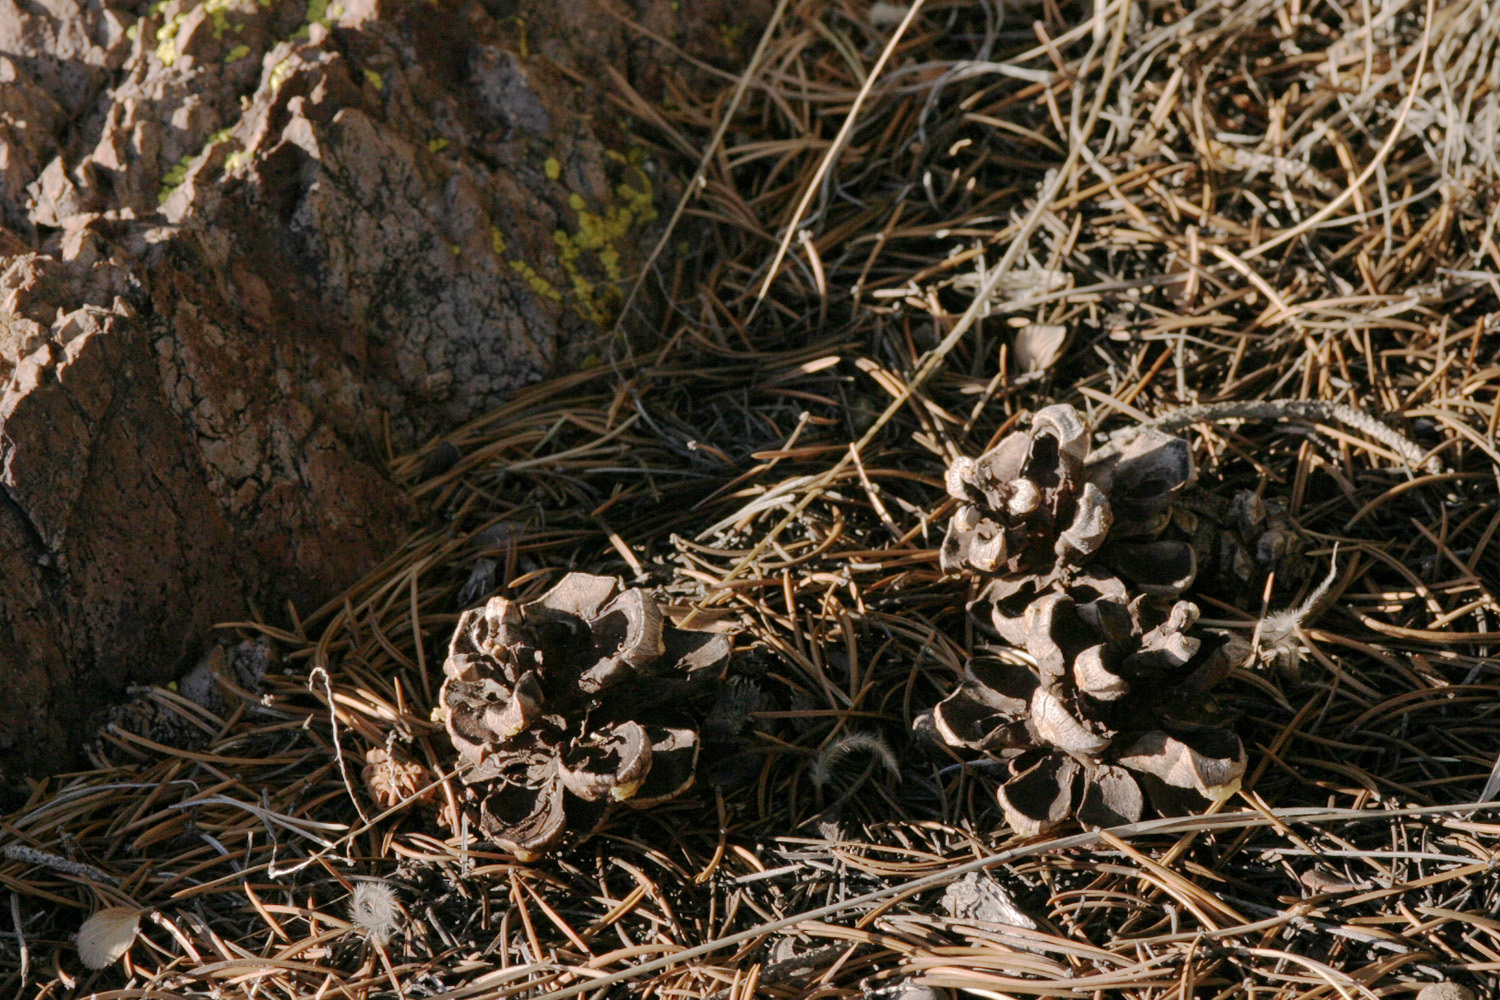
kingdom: Plantae
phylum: Tracheophyta
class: Pinopsida
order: Pinales
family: Pinaceae
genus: Pinus
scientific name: Pinus edulis
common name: Colorado pinyon
